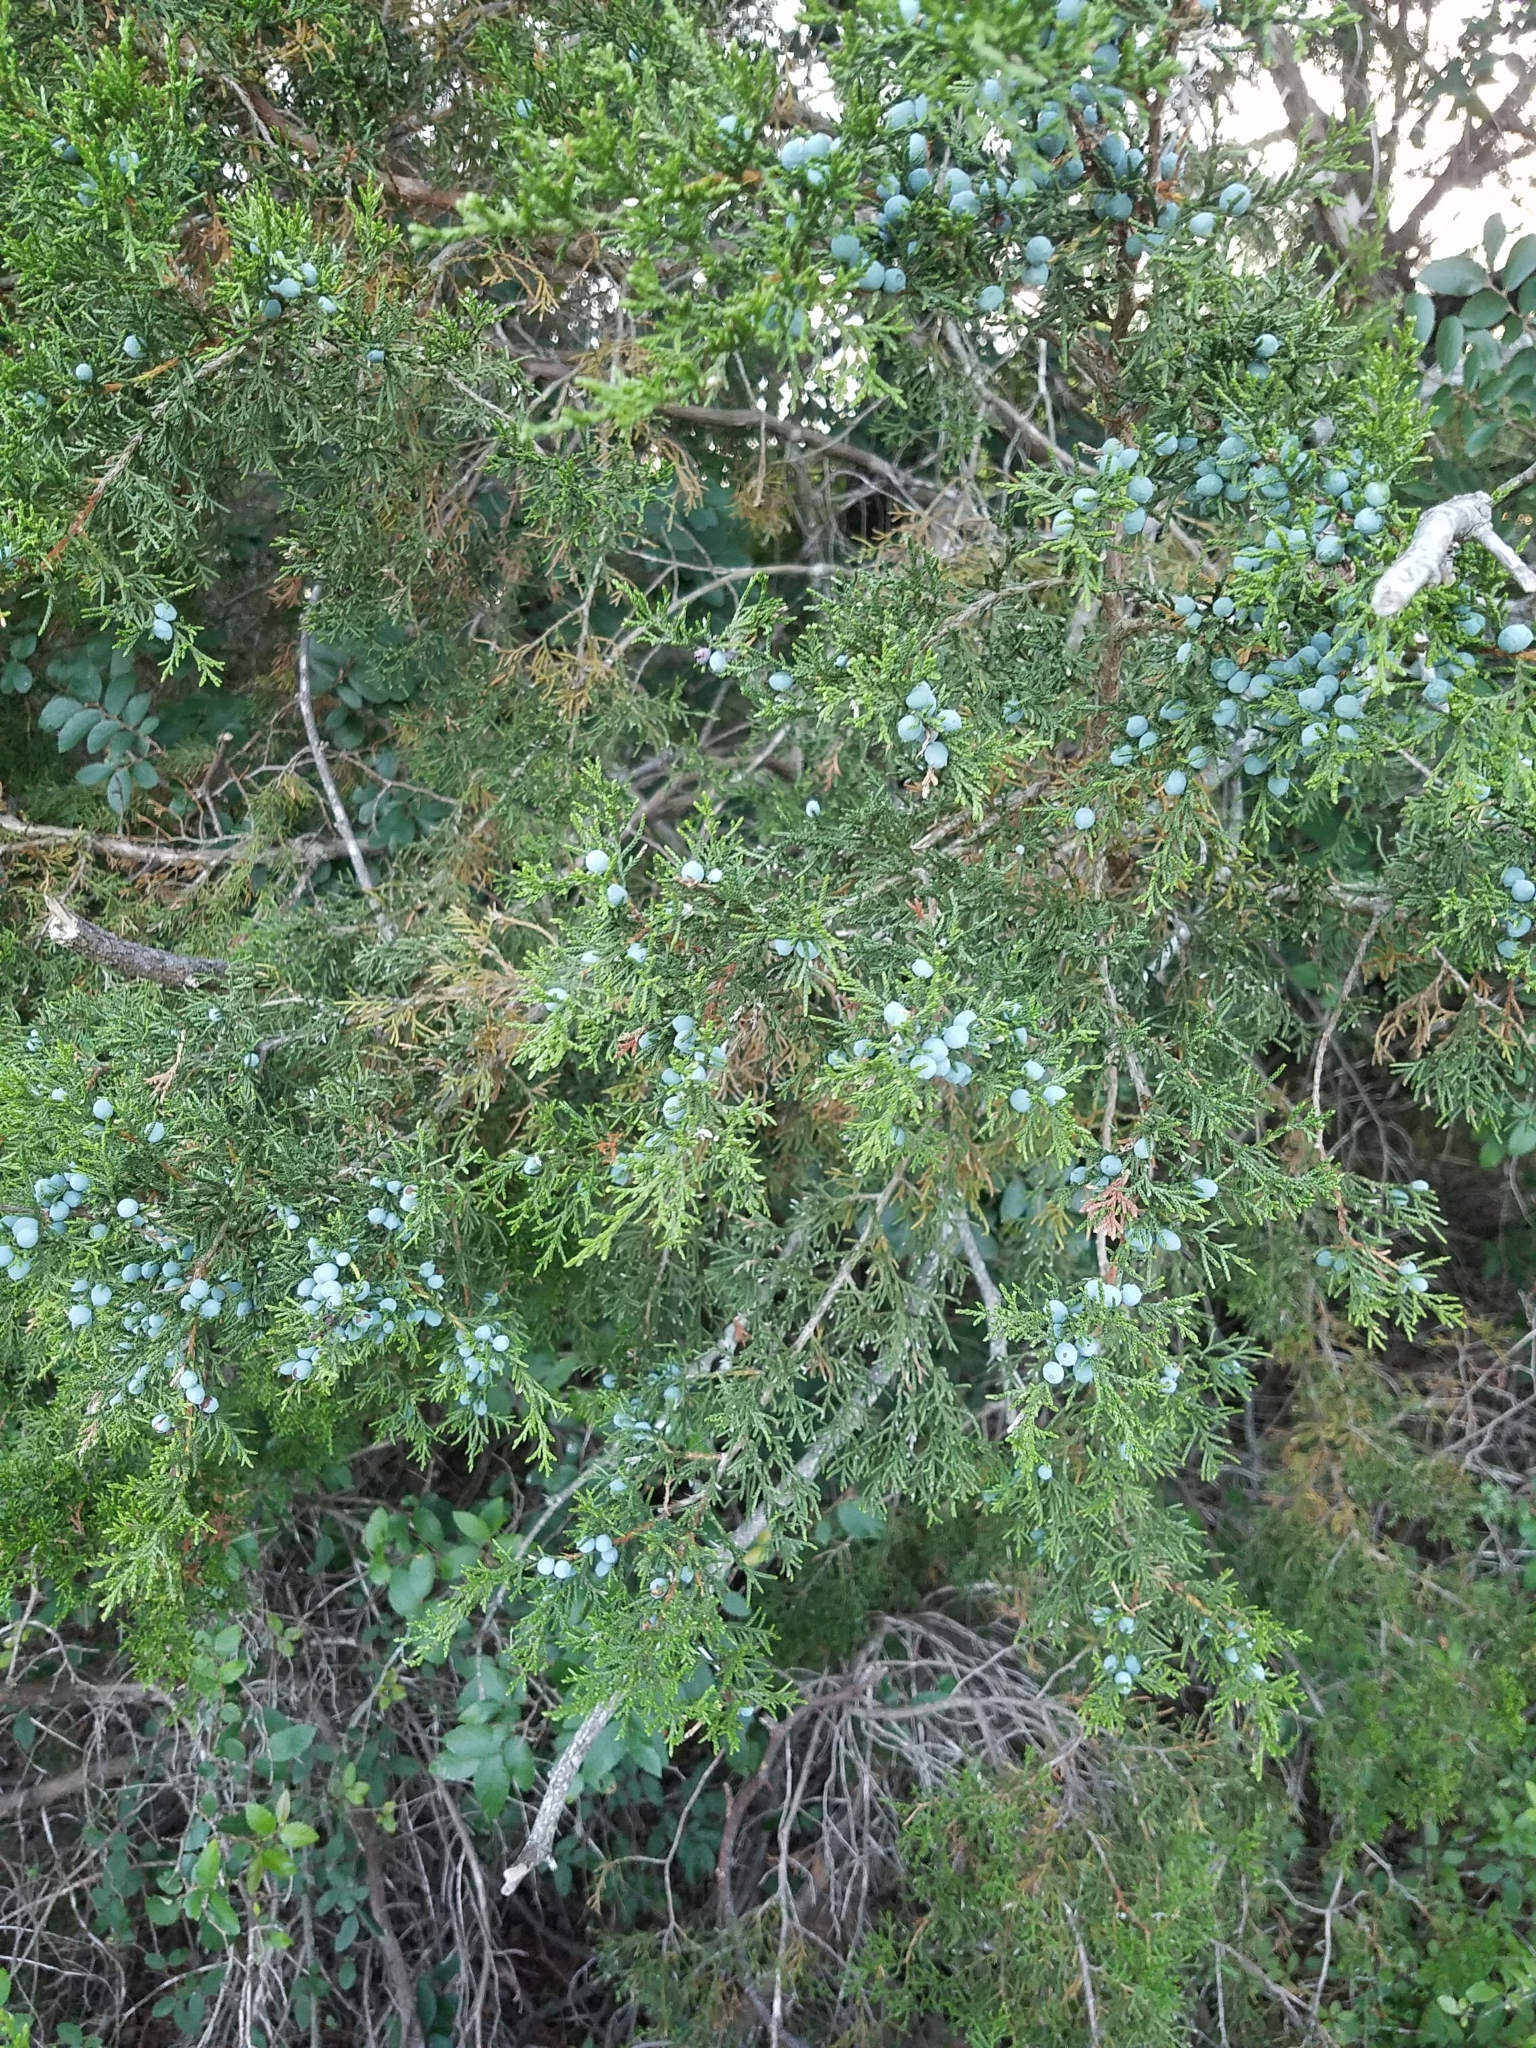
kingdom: Plantae
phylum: Tracheophyta
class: Pinopsida
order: Pinales
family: Cupressaceae
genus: Juniperus
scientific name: Juniperus ashei
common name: Mexican juniper
